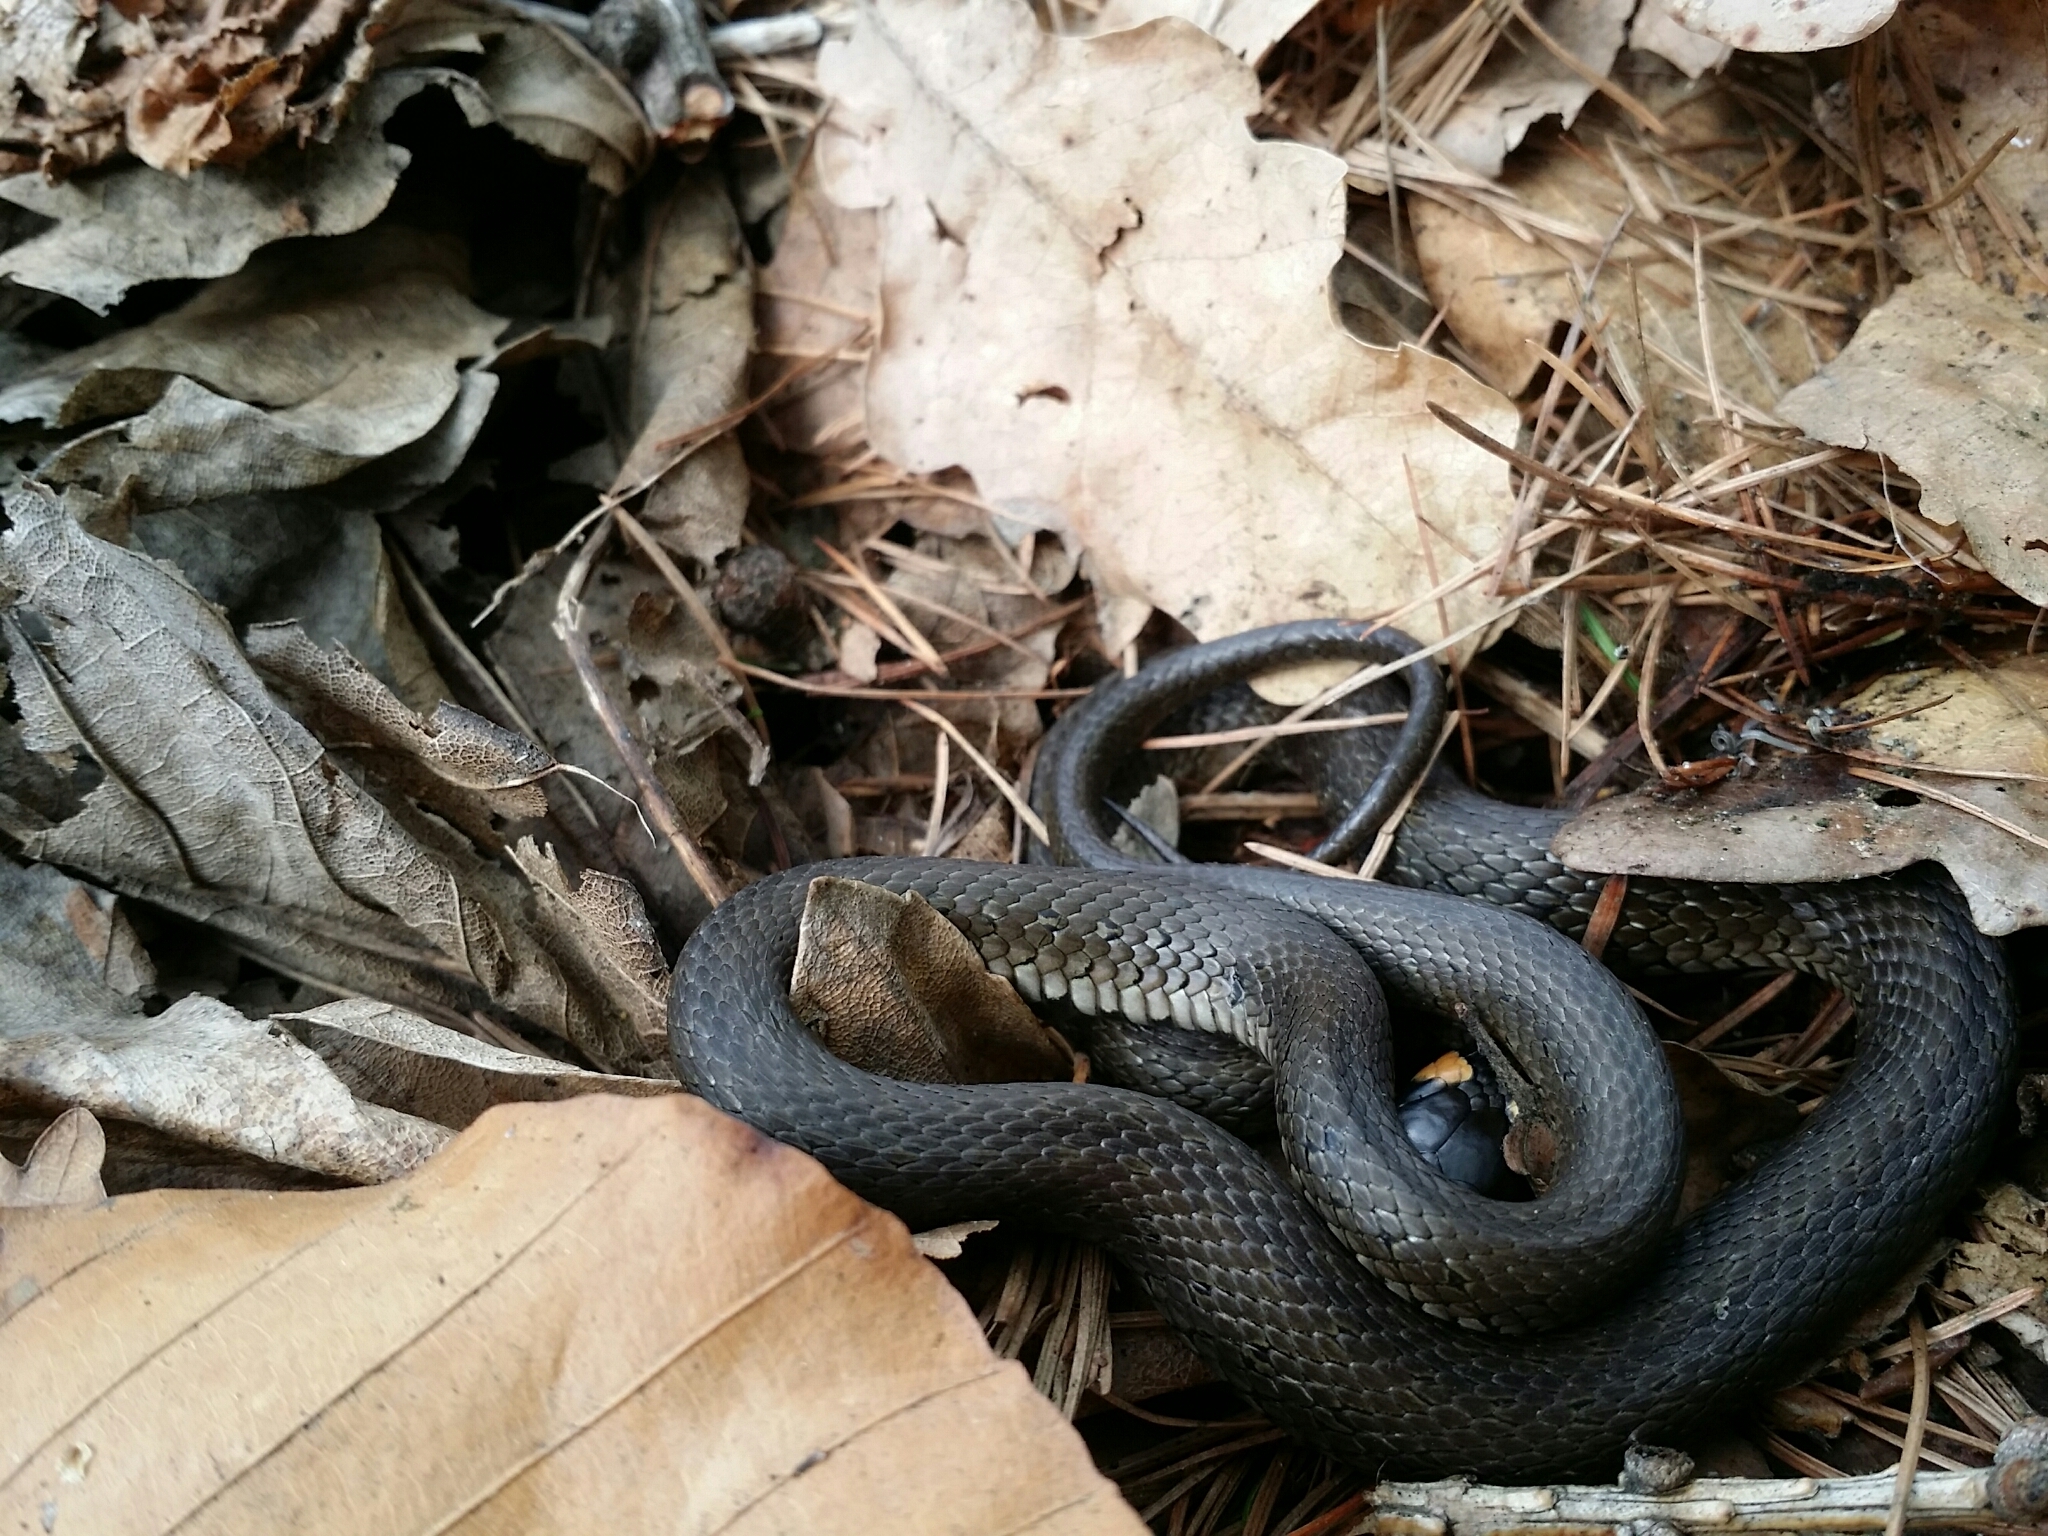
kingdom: Animalia
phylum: Chordata
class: Squamata
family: Colubridae
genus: Natrix
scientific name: Natrix natrix
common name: Grass snake
